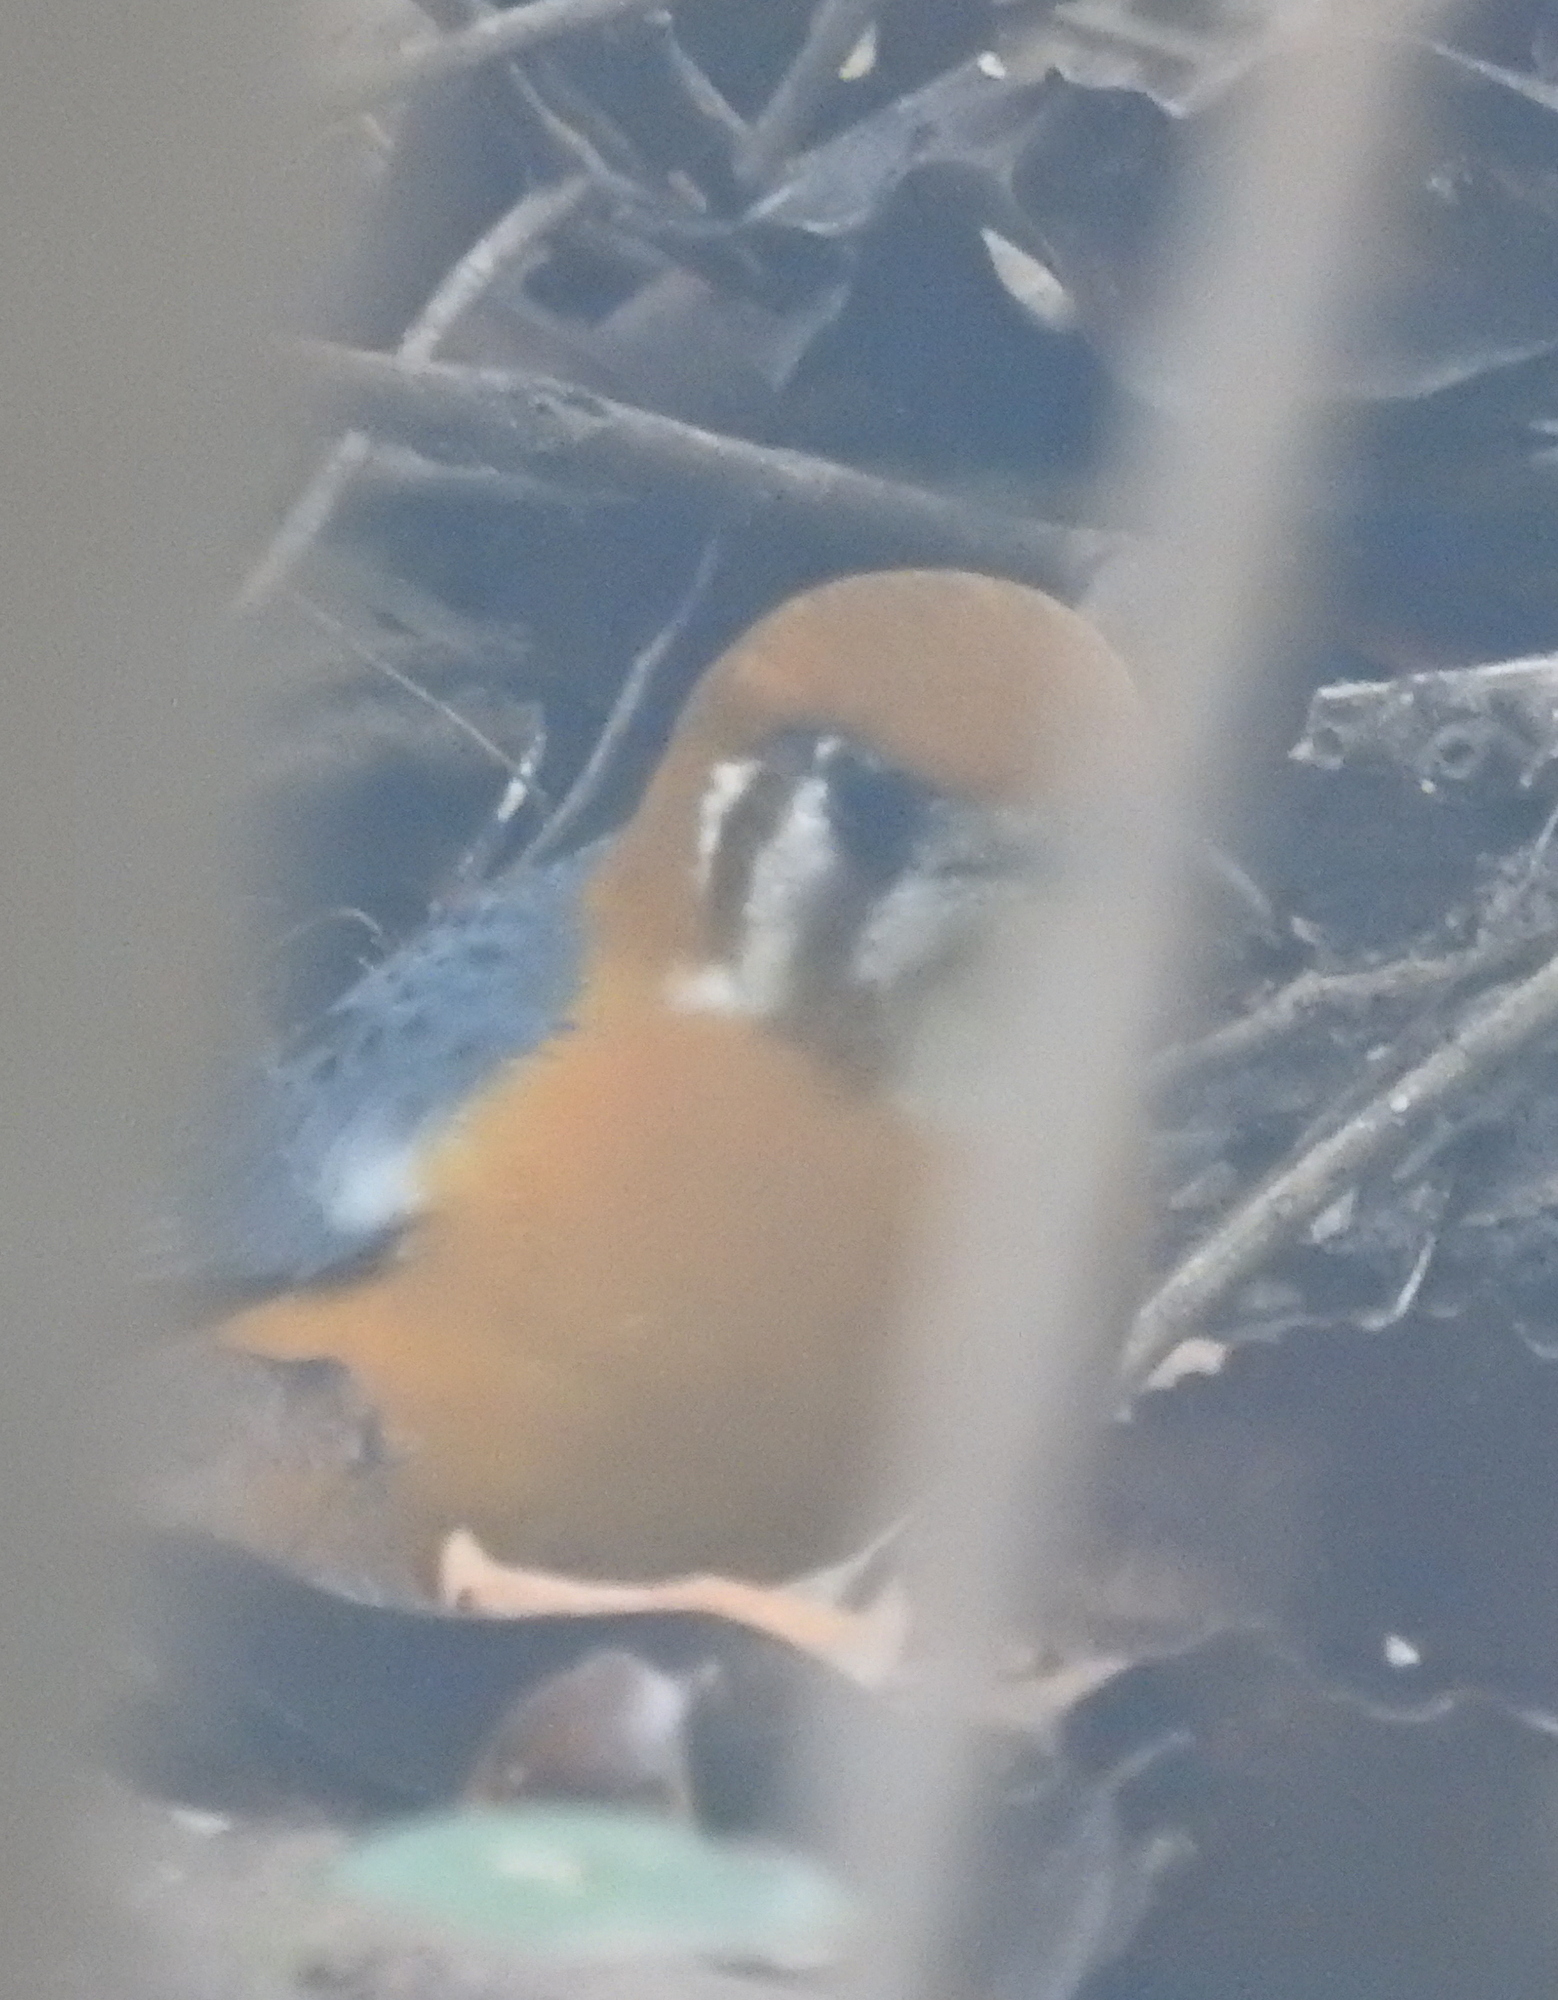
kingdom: Animalia
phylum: Chordata
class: Aves
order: Passeriformes
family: Turdidae
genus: Geokichla
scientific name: Geokichla citrina
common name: Orange-headed thrush
